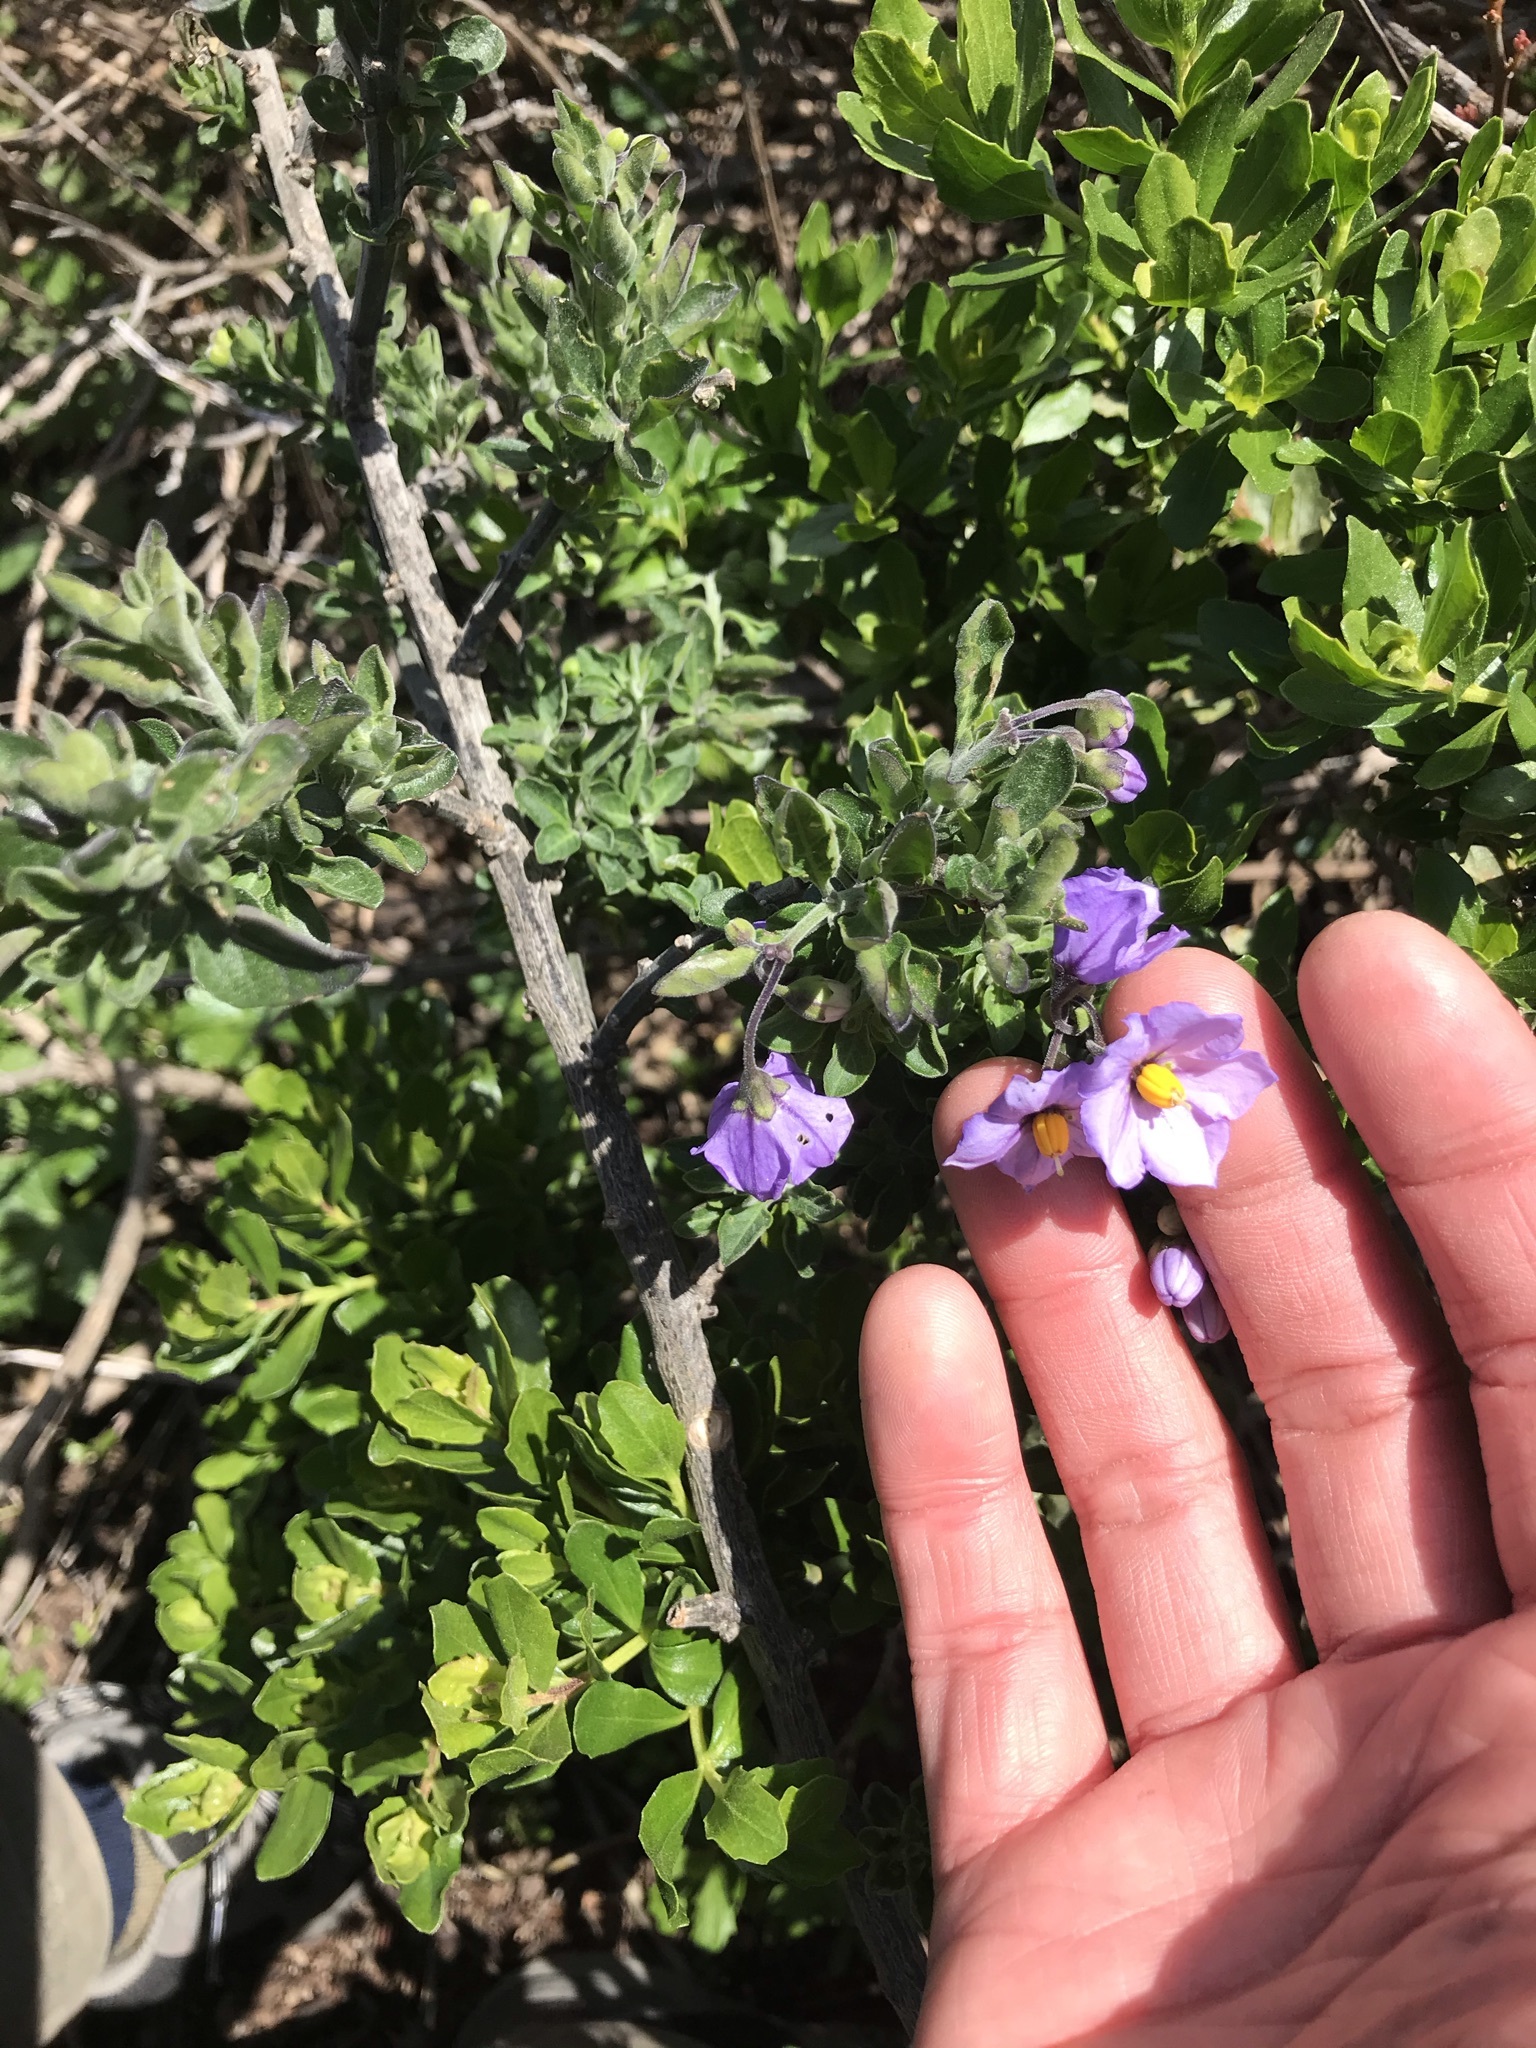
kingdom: Plantae
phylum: Tracheophyta
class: Magnoliopsida
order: Solanales
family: Solanaceae
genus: Solanum
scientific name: Solanum umbelliferum
